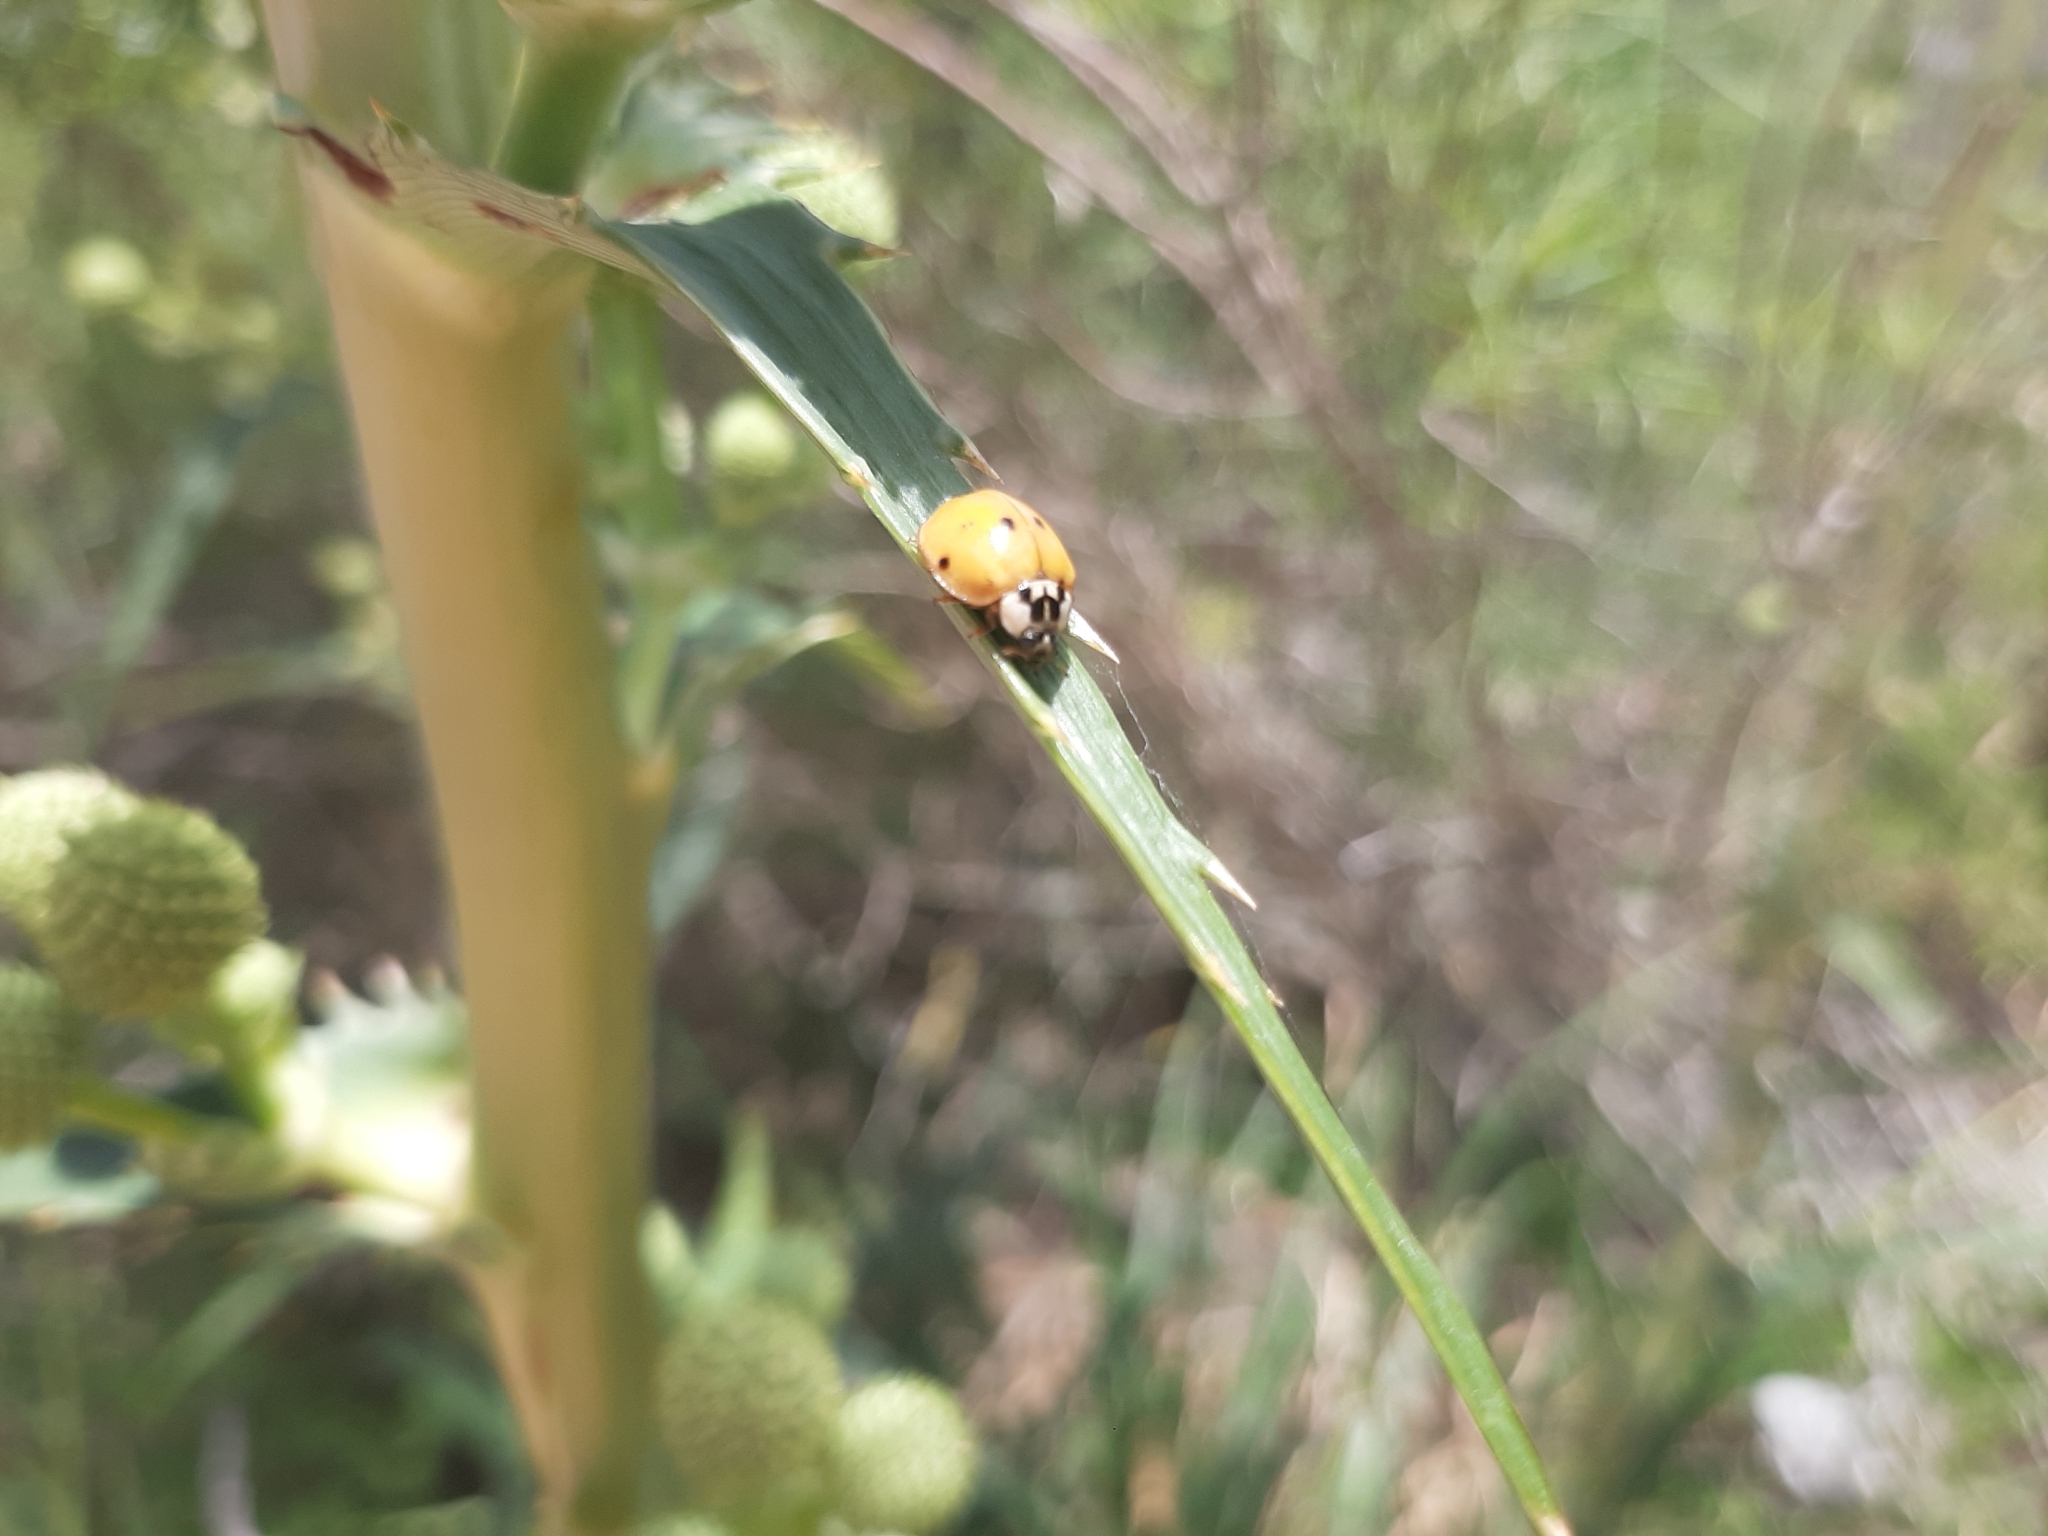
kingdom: Animalia
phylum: Arthropoda
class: Insecta
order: Coleoptera
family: Coccinellidae
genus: Harmonia
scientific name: Harmonia axyridis
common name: Harlequin ladybird
